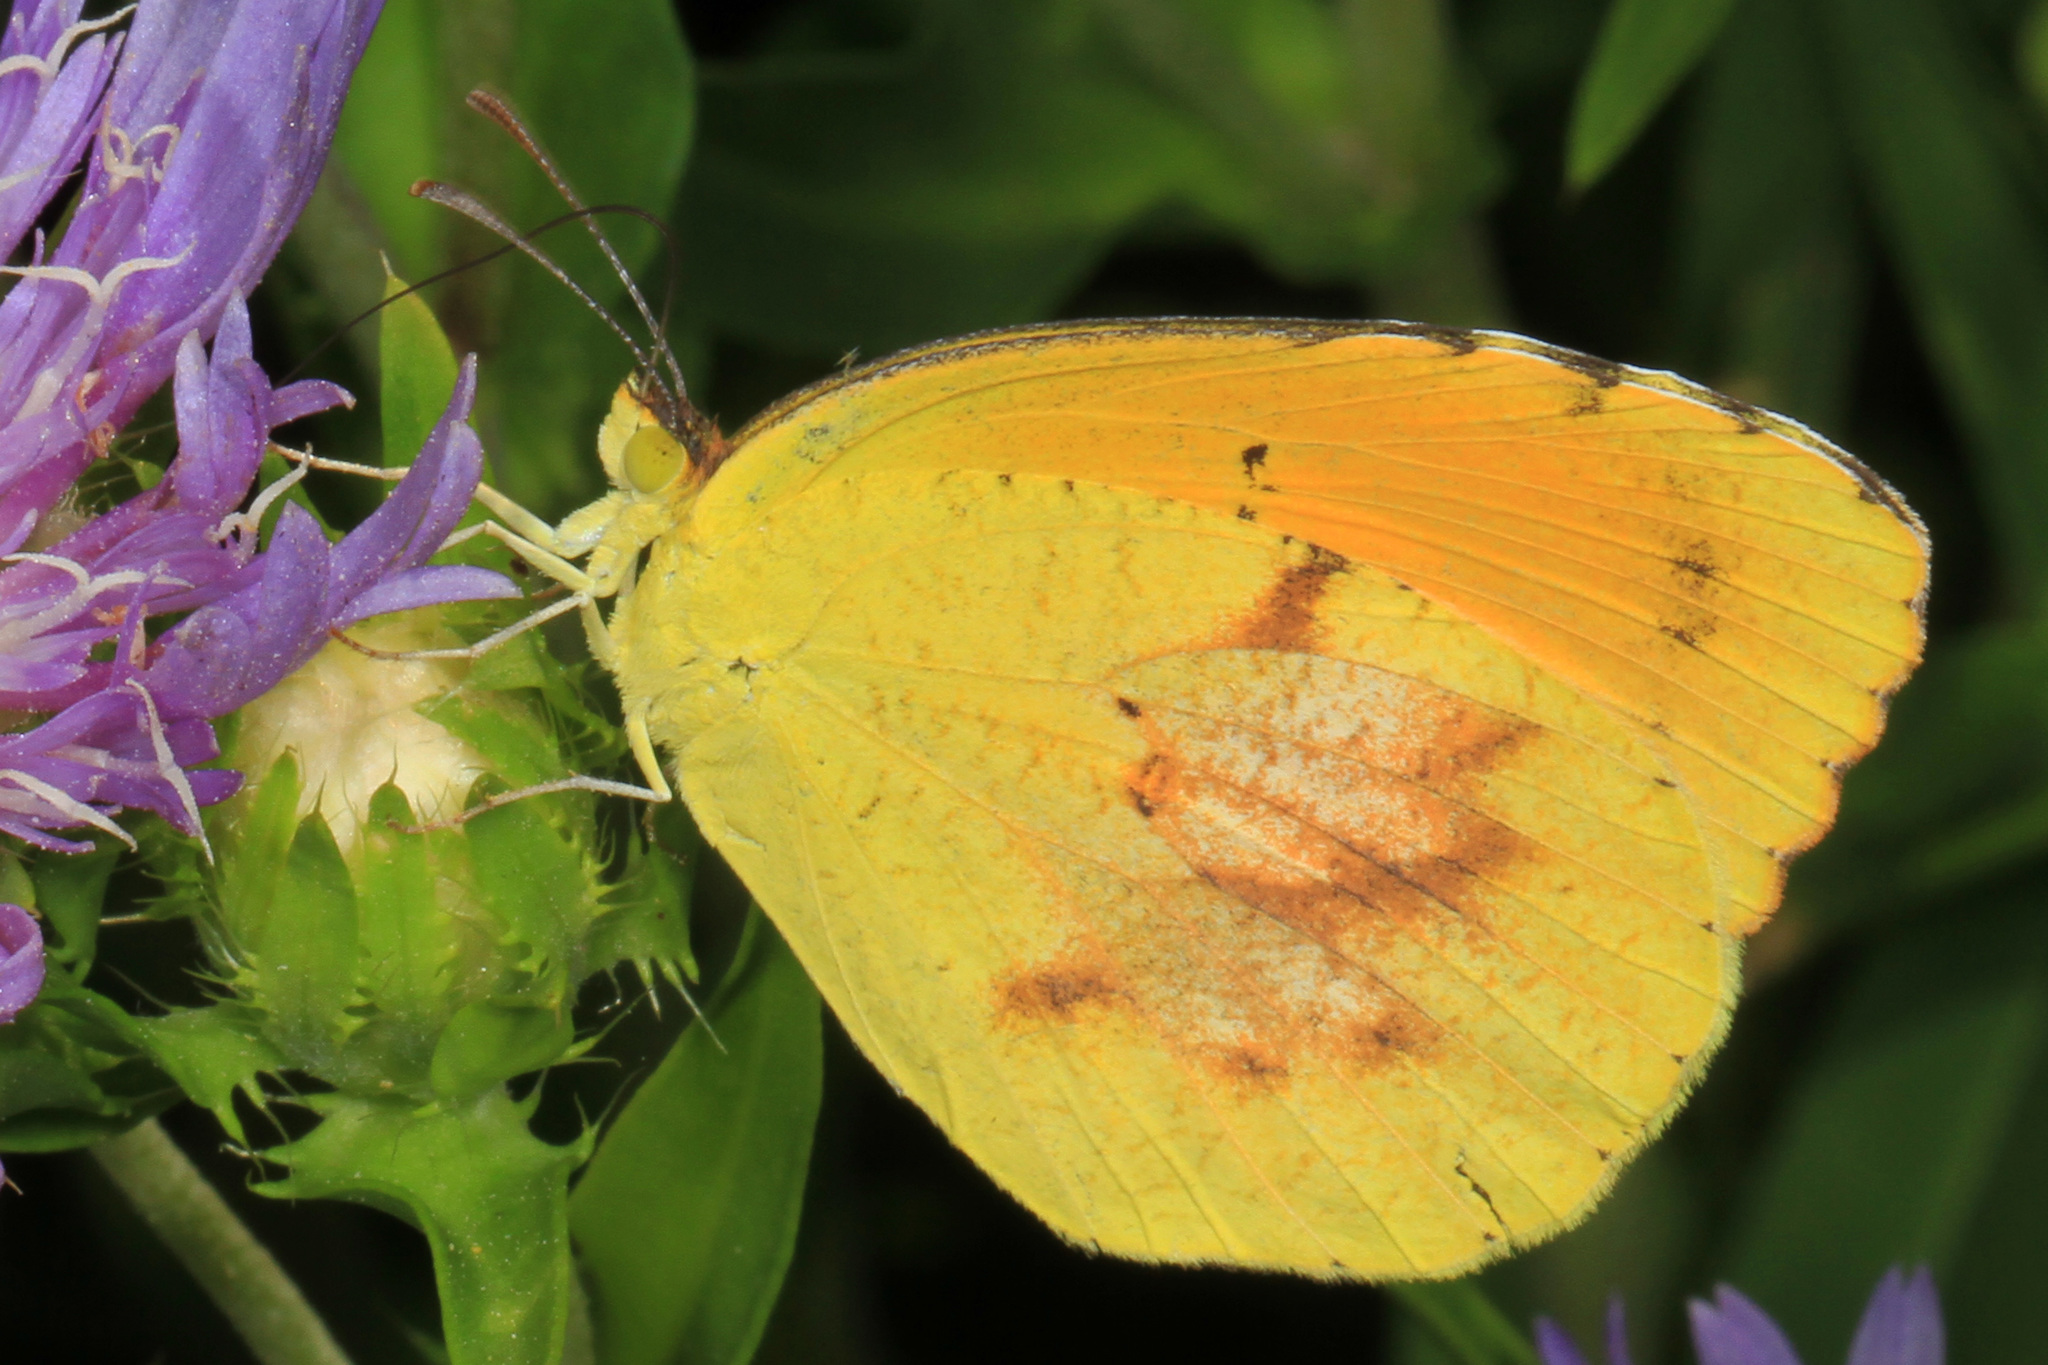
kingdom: Animalia
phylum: Arthropoda
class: Insecta
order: Lepidoptera
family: Pieridae
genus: Abaeis
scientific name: Abaeis nicippe
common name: Sleepy orange
